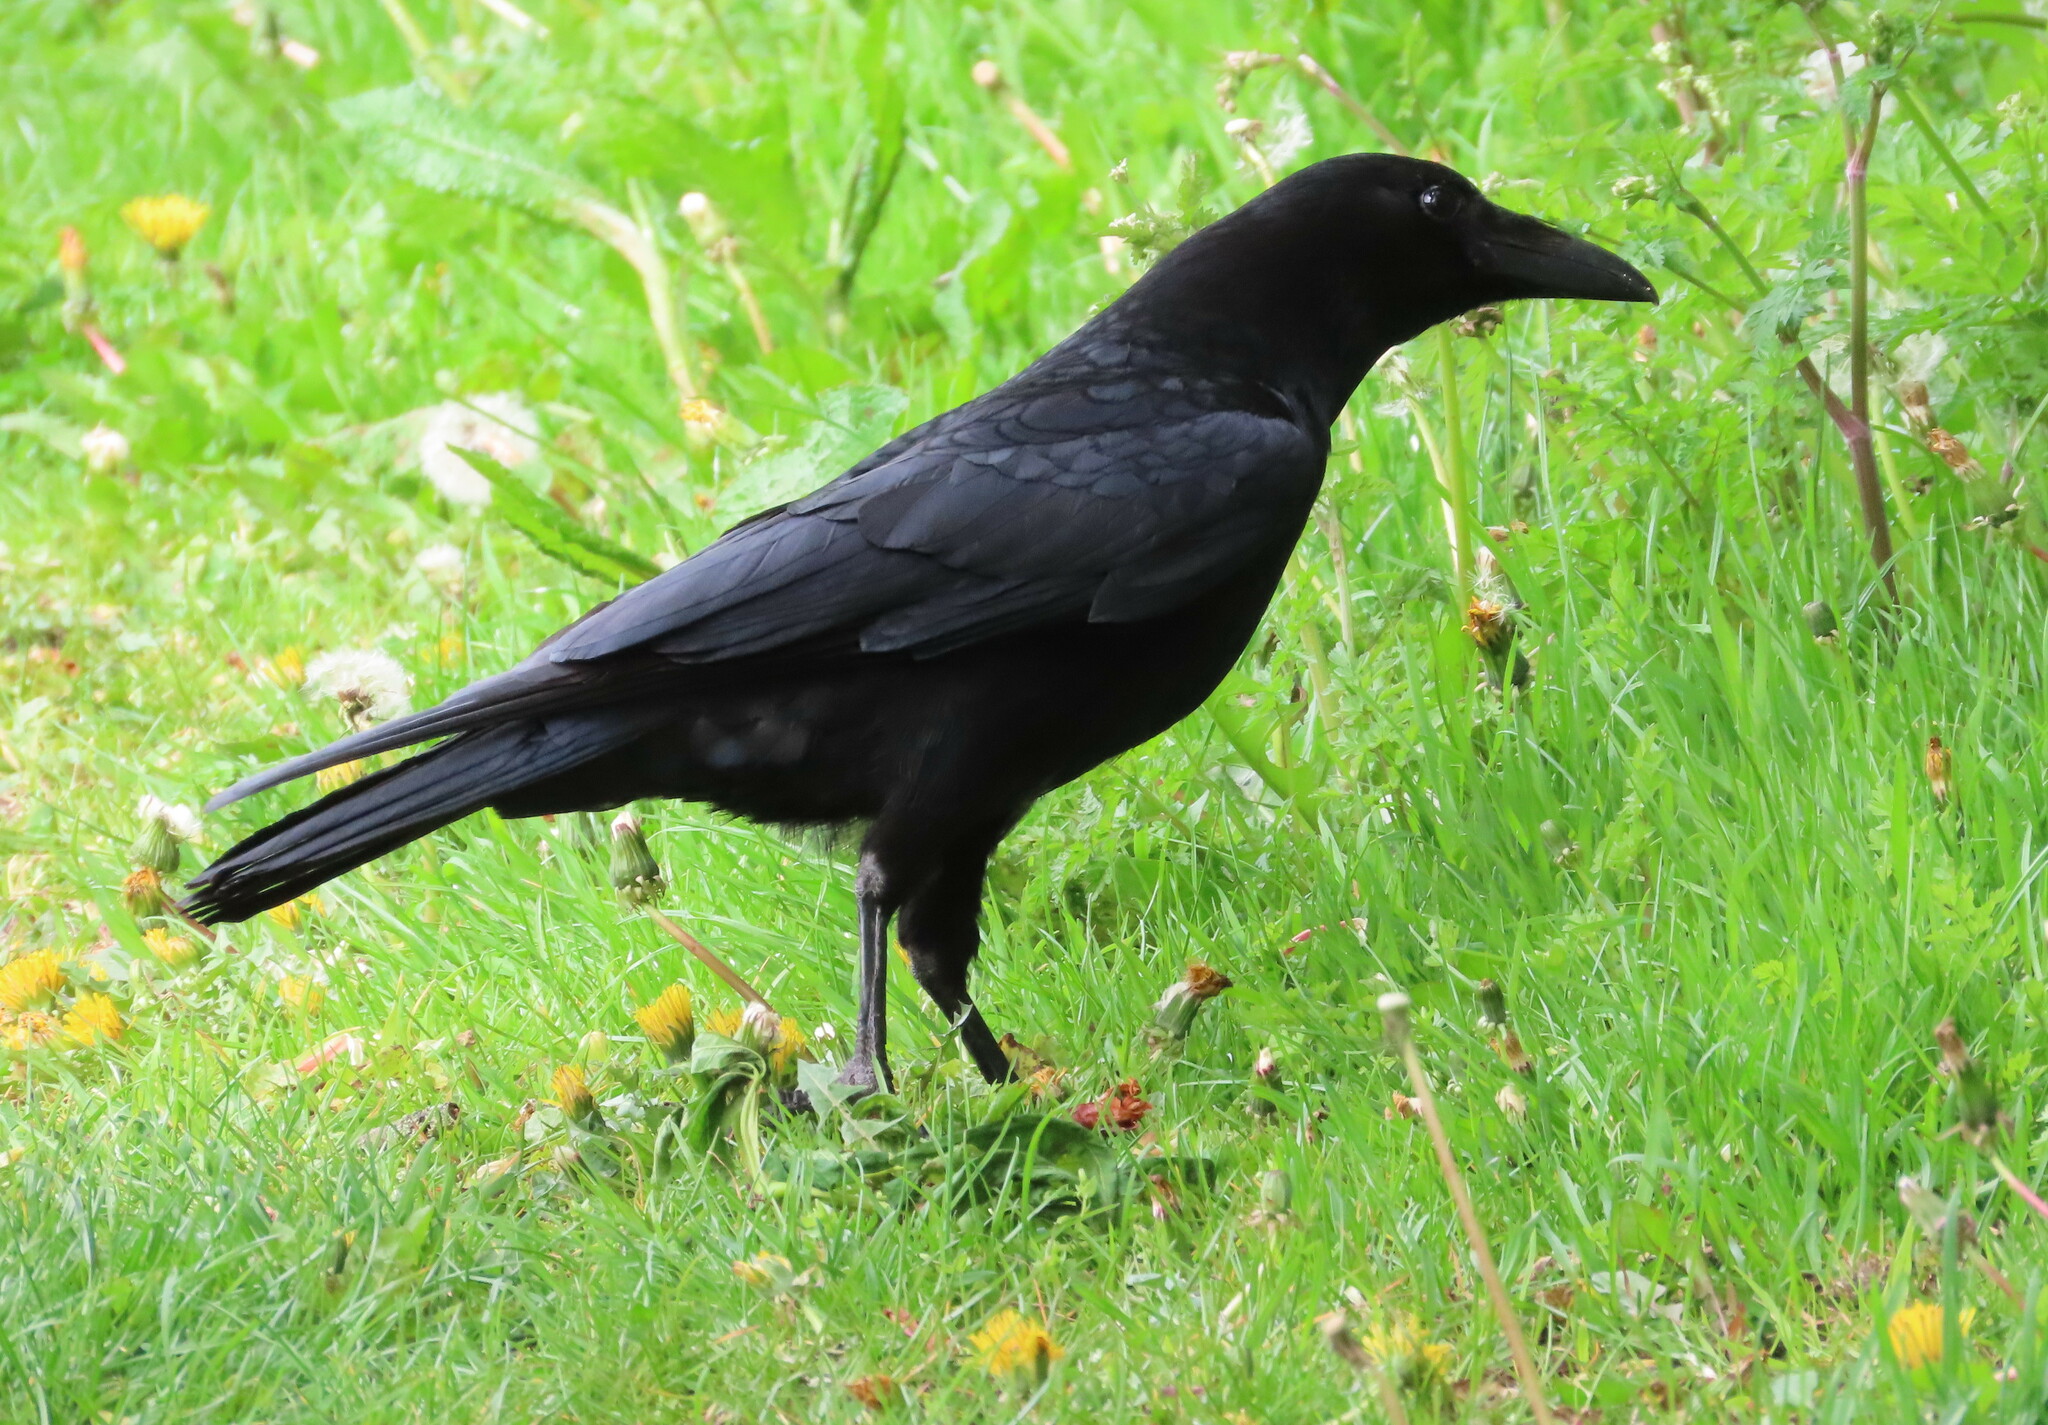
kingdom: Animalia
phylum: Chordata
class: Aves
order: Passeriformes
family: Corvidae
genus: Corvus
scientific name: Corvus corone
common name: Carrion crow
